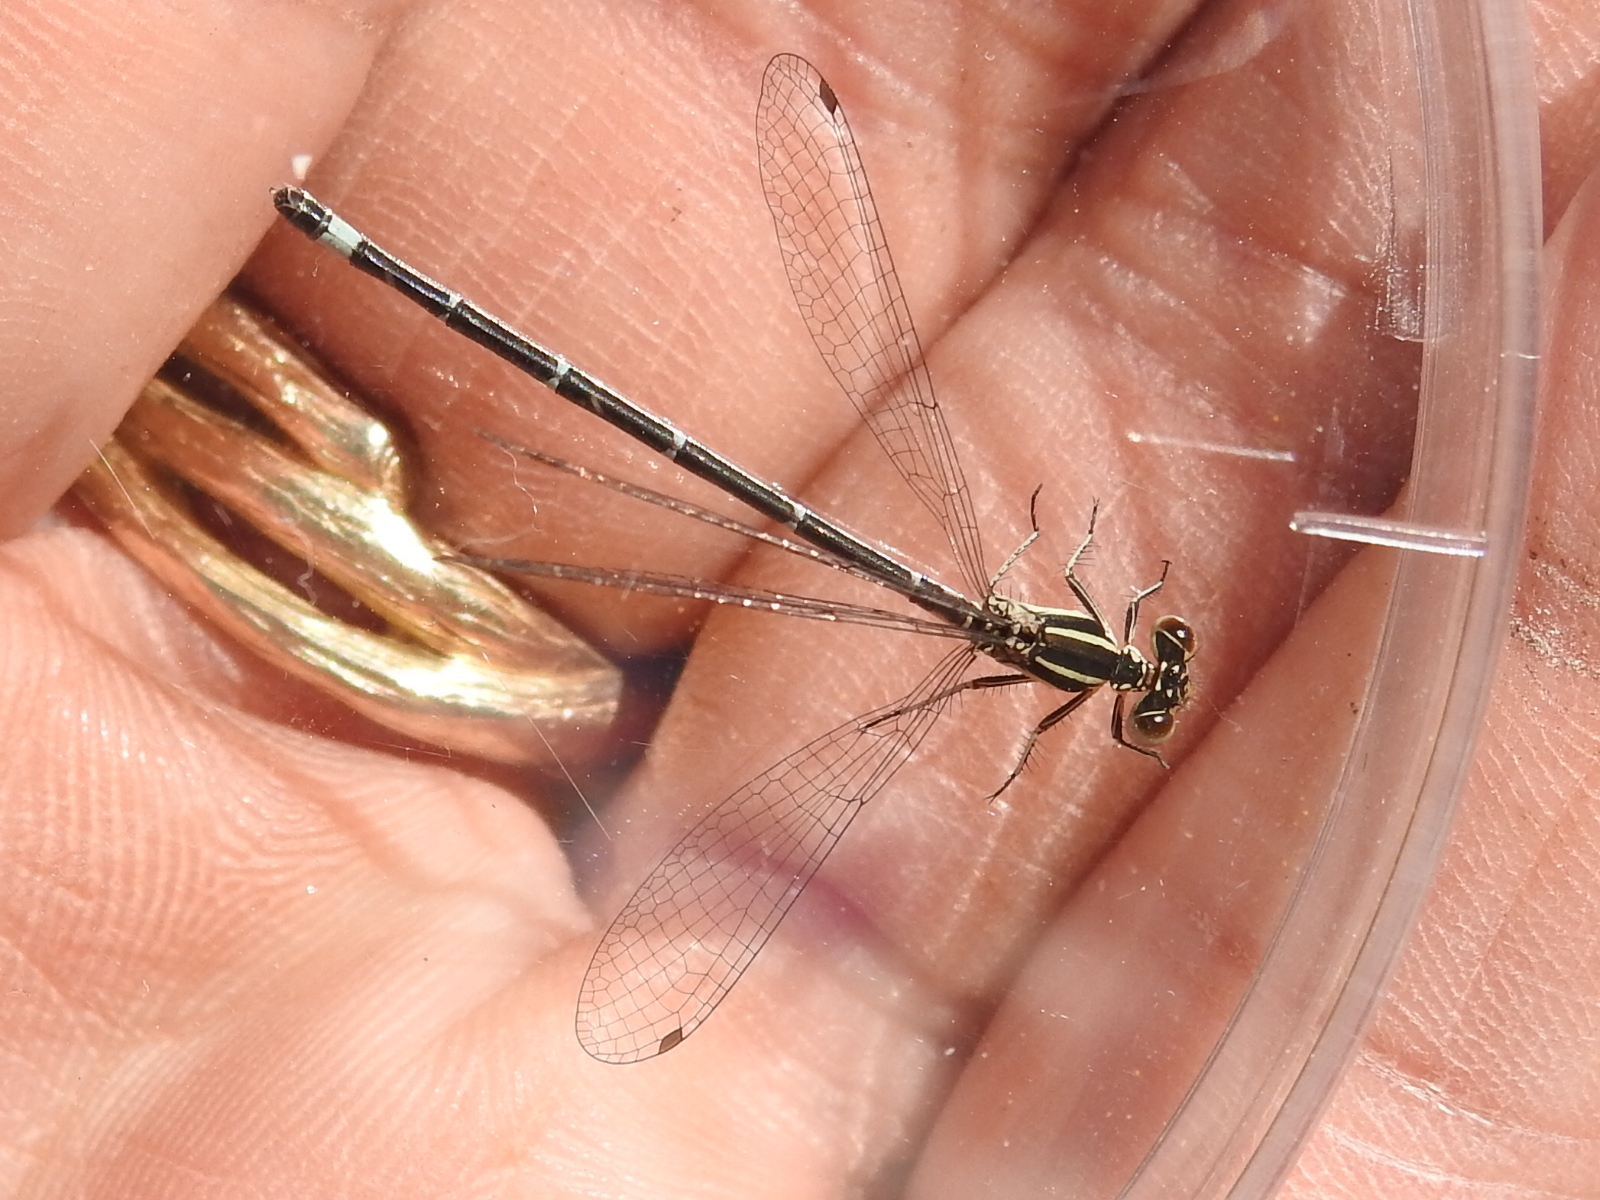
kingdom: Animalia
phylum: Arthropoda
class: Insecta
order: Odonata
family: Coenagrionidae
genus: Argia
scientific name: Argia bipunctulata
